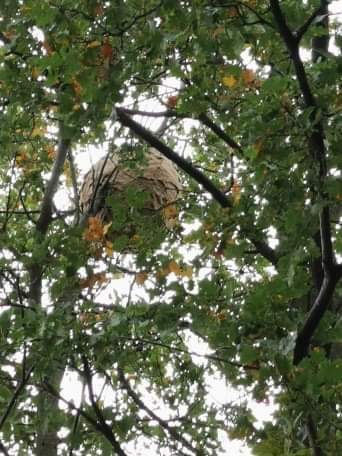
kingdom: Animalia
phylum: Arthropoda
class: Insecta
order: Hymenoptera
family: Vespidae
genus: Vespa
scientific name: Vespa velutina
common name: Asian hornet
